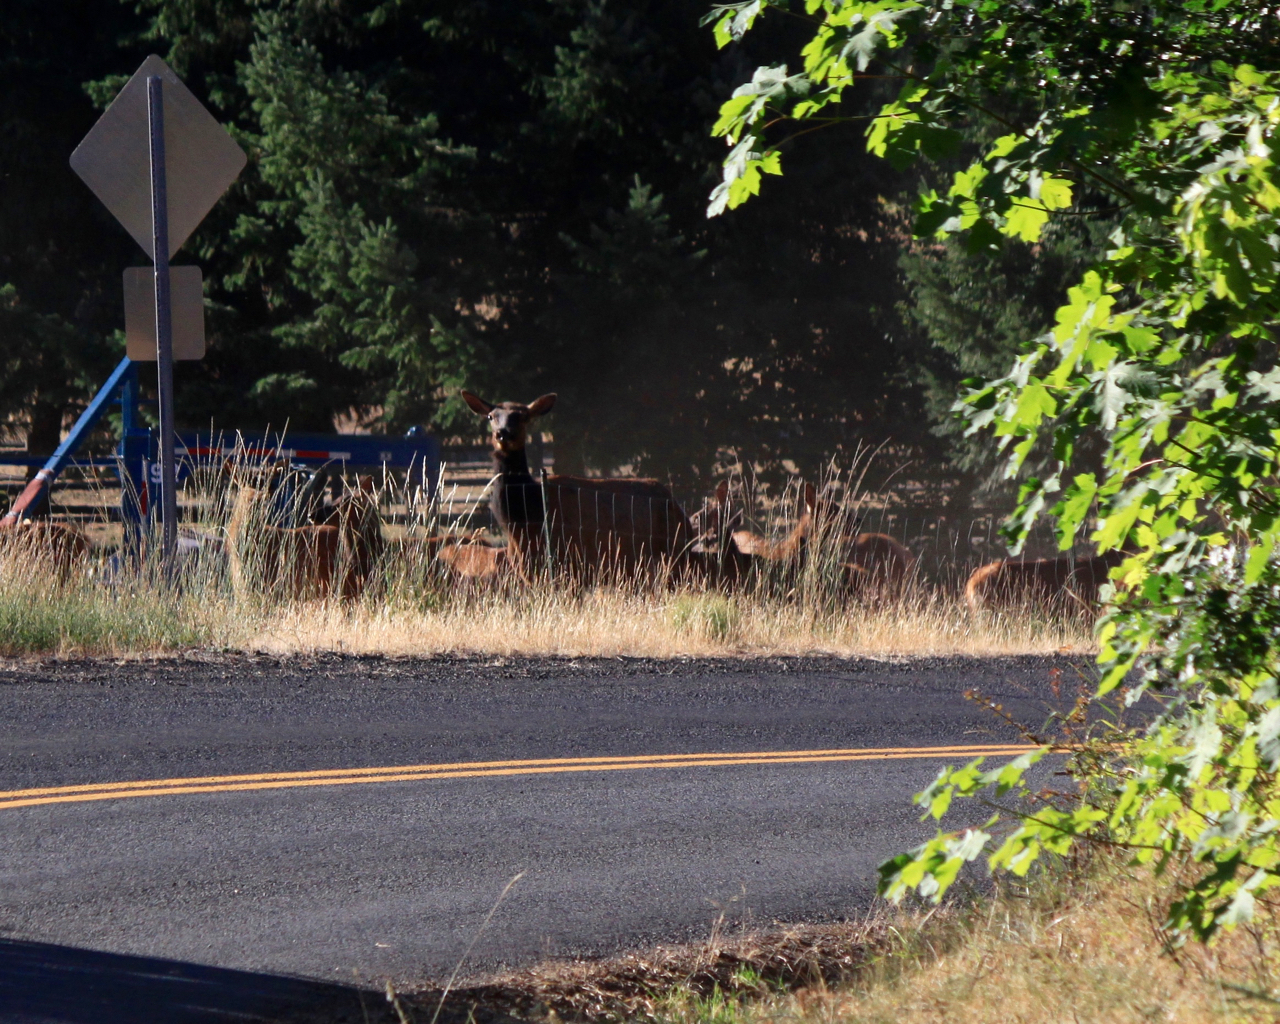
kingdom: Animalia
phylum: Chordata
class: Mammalia
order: Artiodactyla
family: Cervidae
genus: Cervus
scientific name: Cervus elaphus
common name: Red deer
